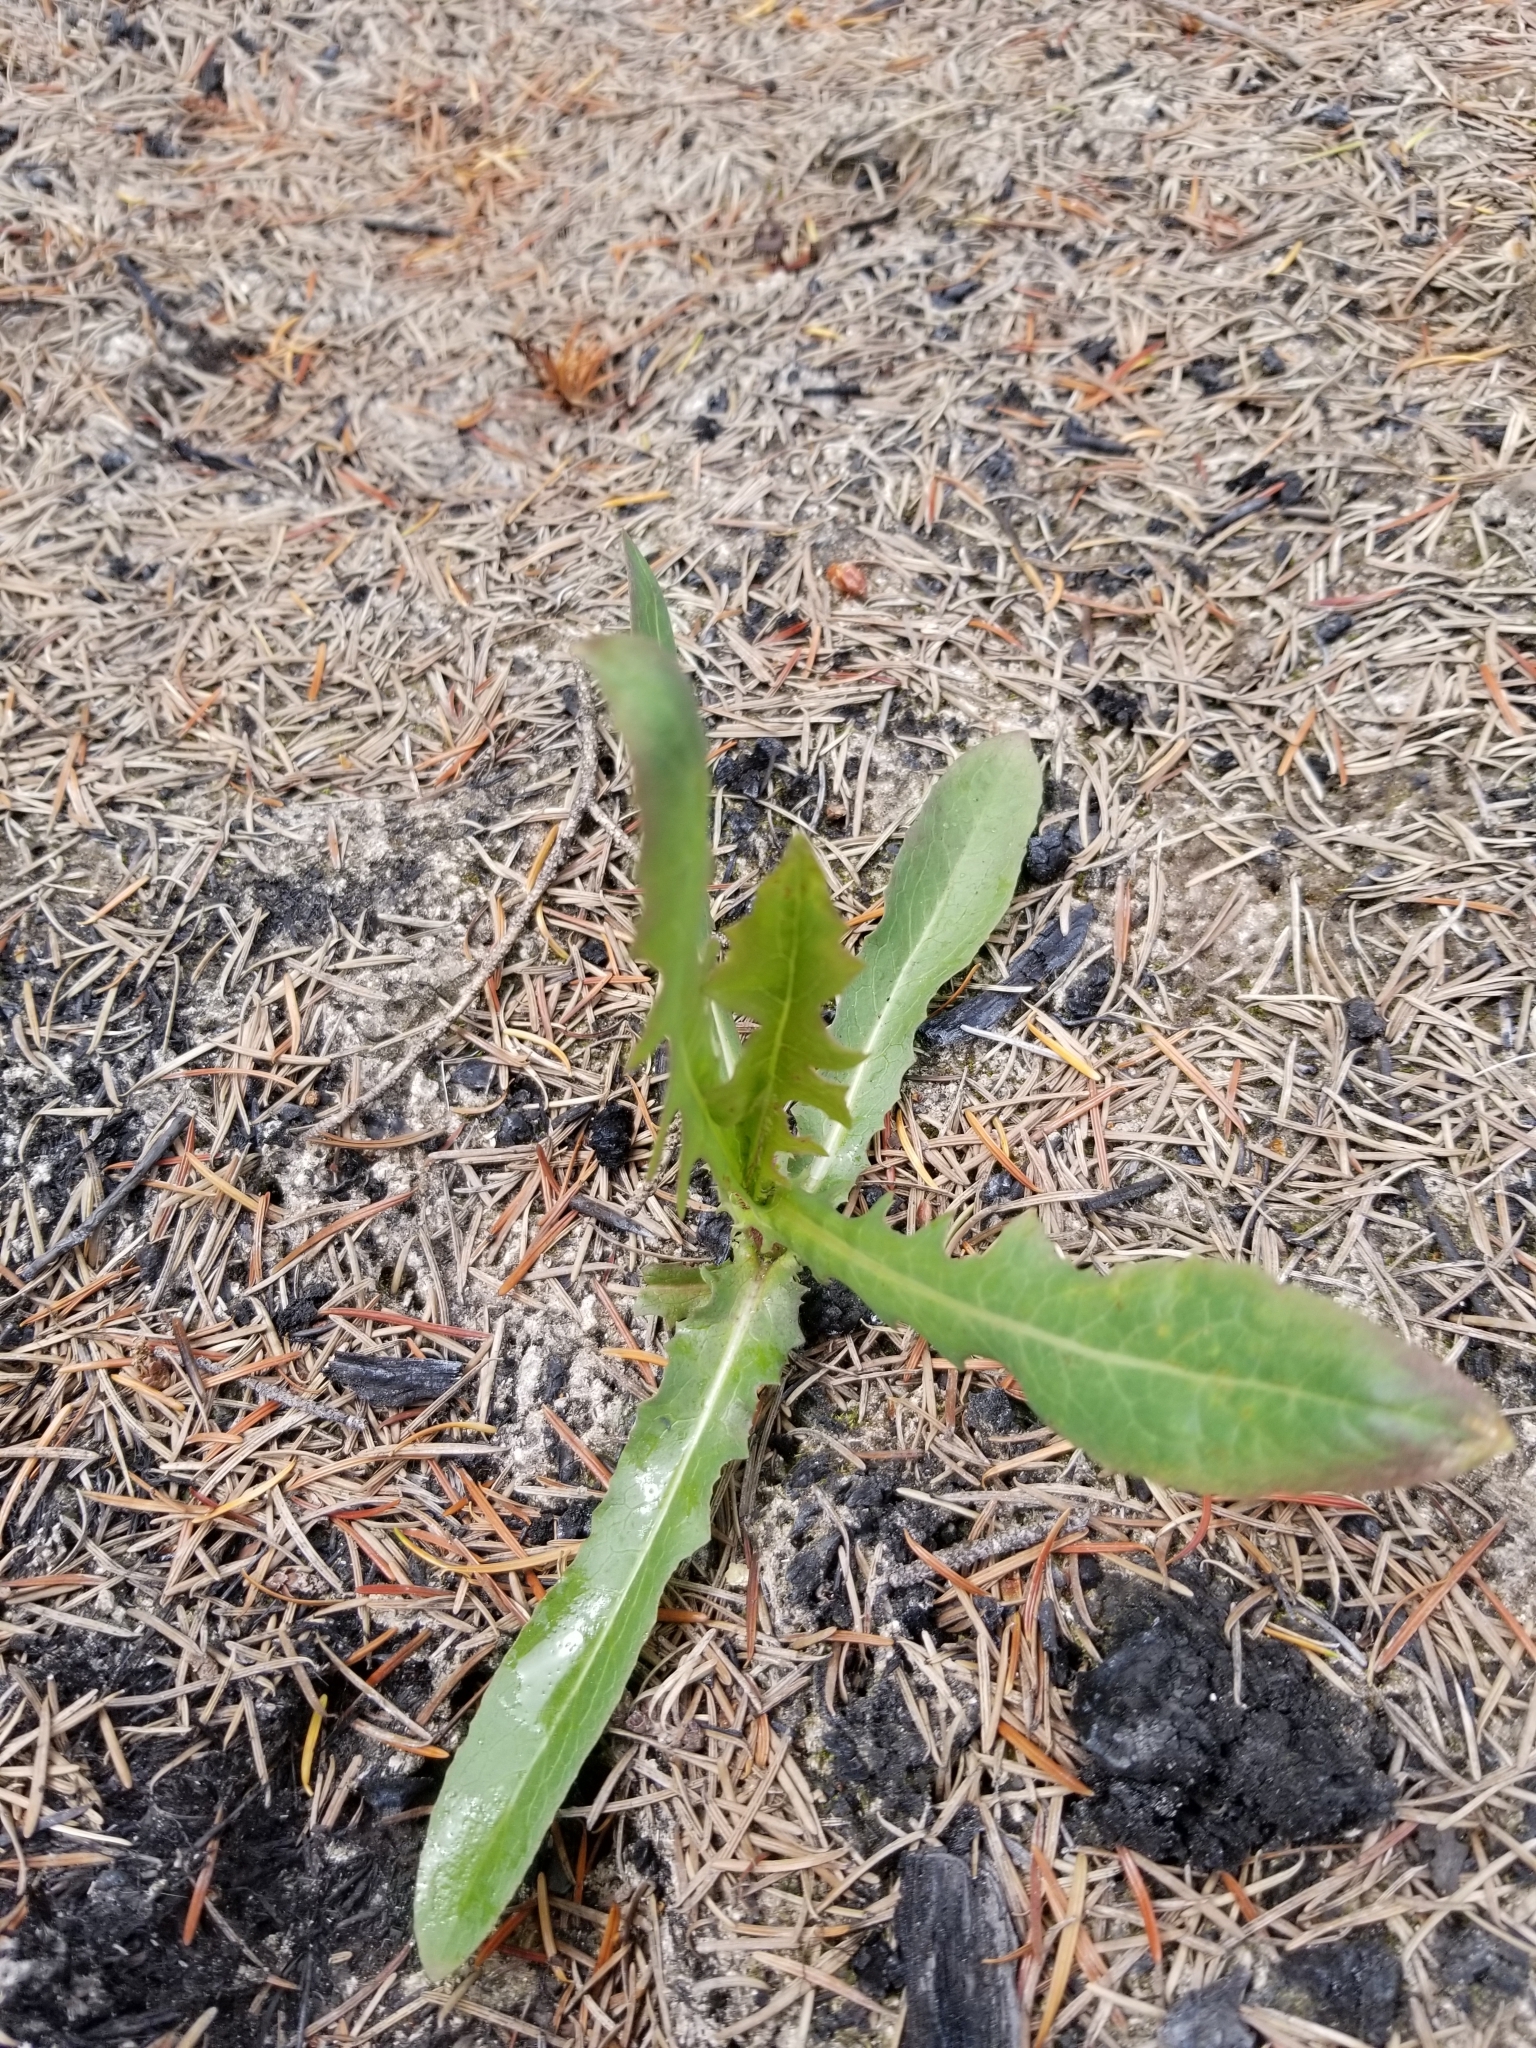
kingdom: Plantae
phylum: Tracheophyta
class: Magnoliopsida
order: Asterales
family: Asteraceae
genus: Lactuca
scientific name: Lactuca serriola
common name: Prickly lettuce
